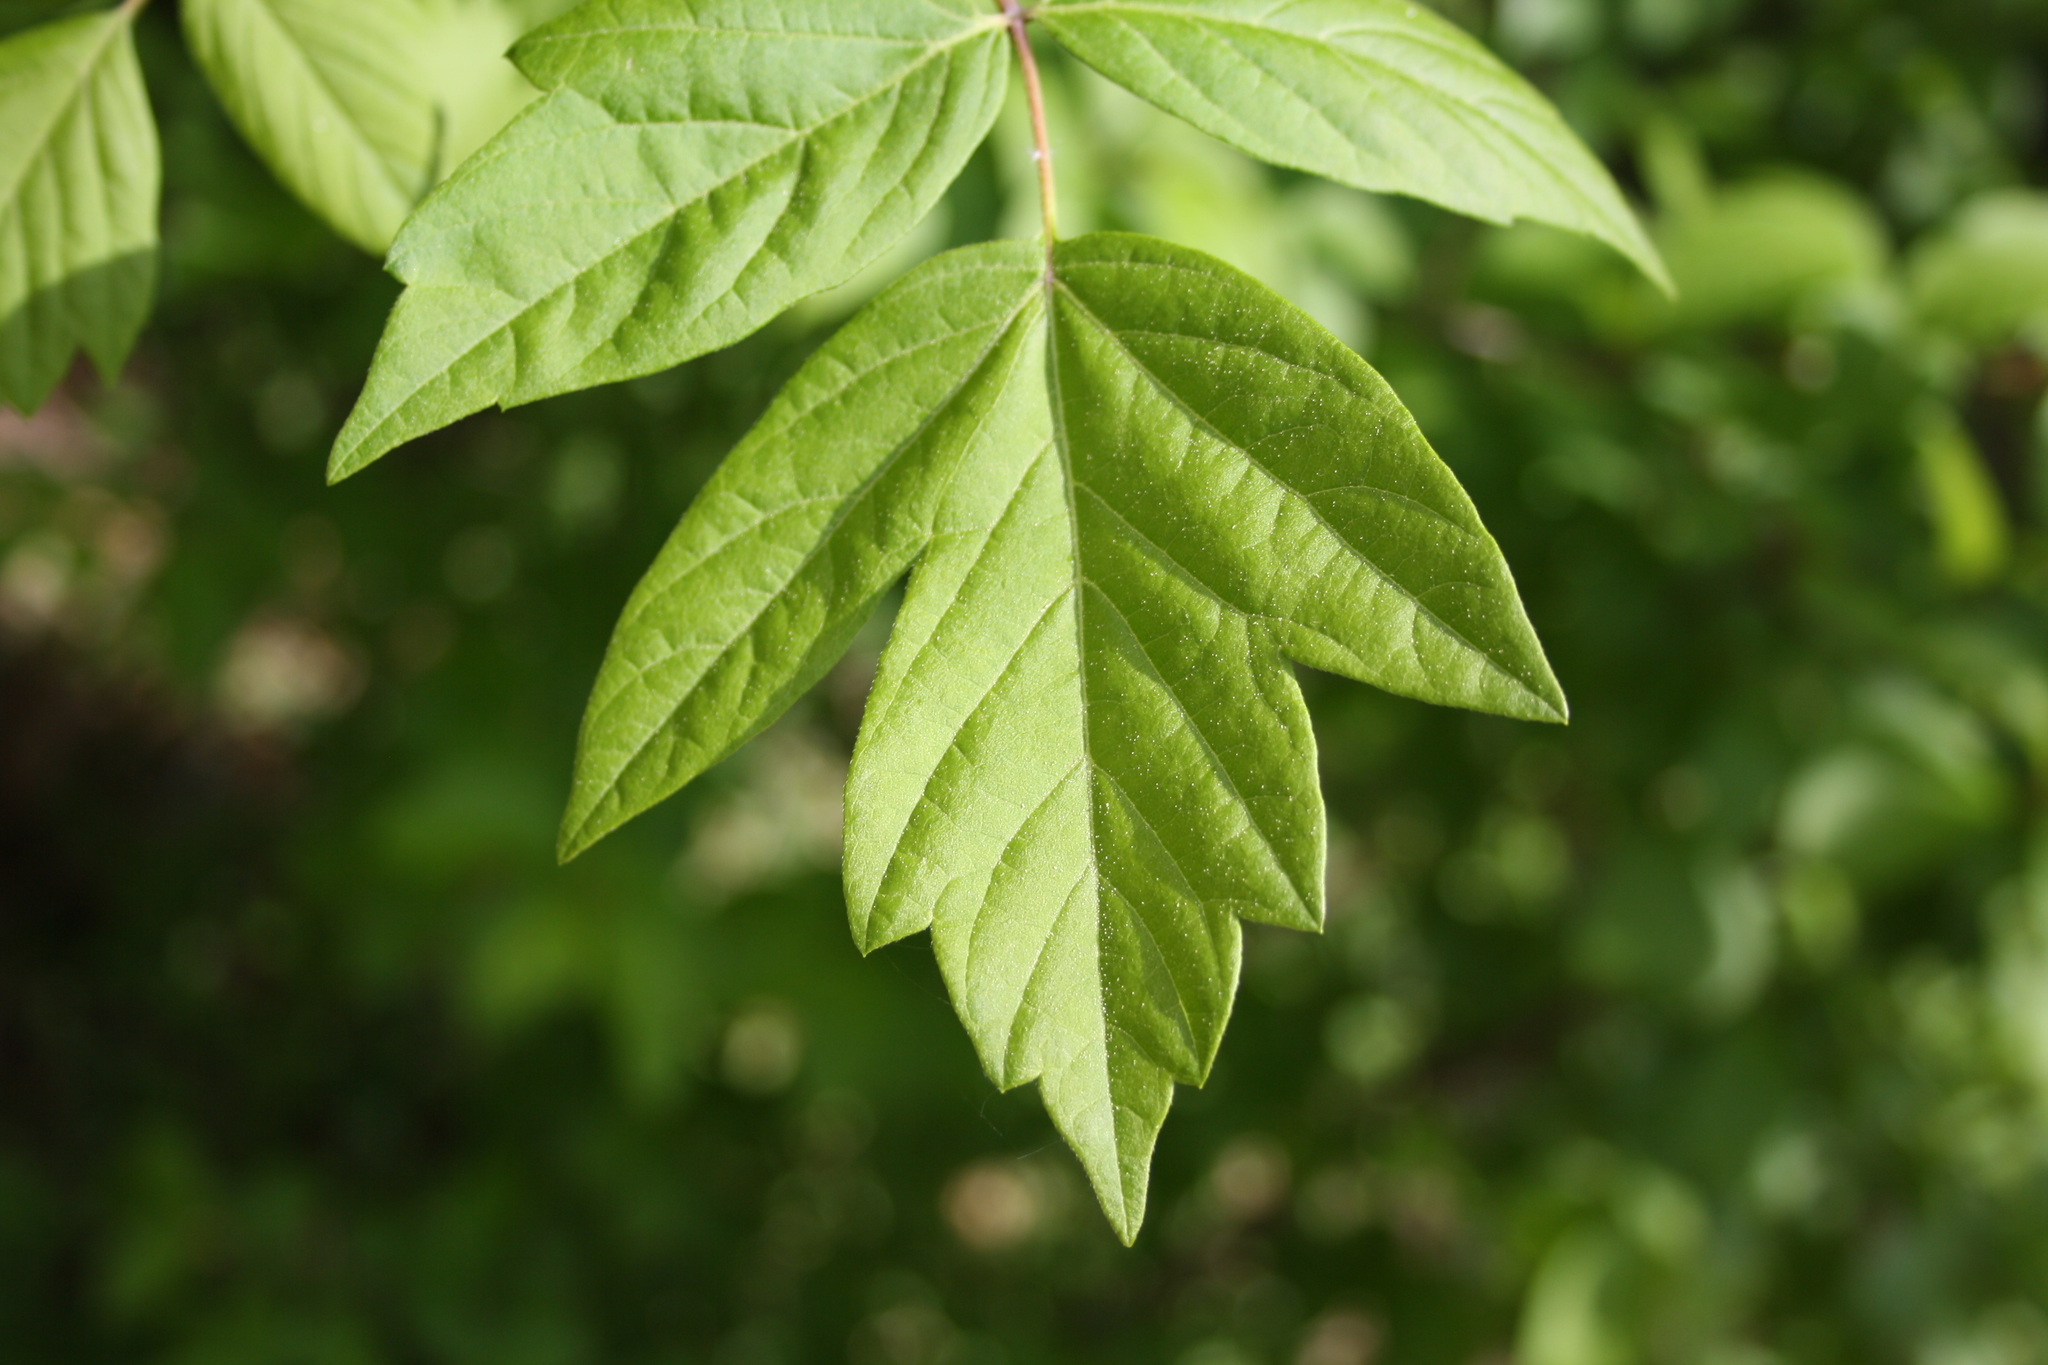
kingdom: Plantae
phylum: Tracheophyta
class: Magnoliopsida
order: Sapindales
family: Sapindaceae
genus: Acer
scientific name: Acer negundo
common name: Ashleaf maple
